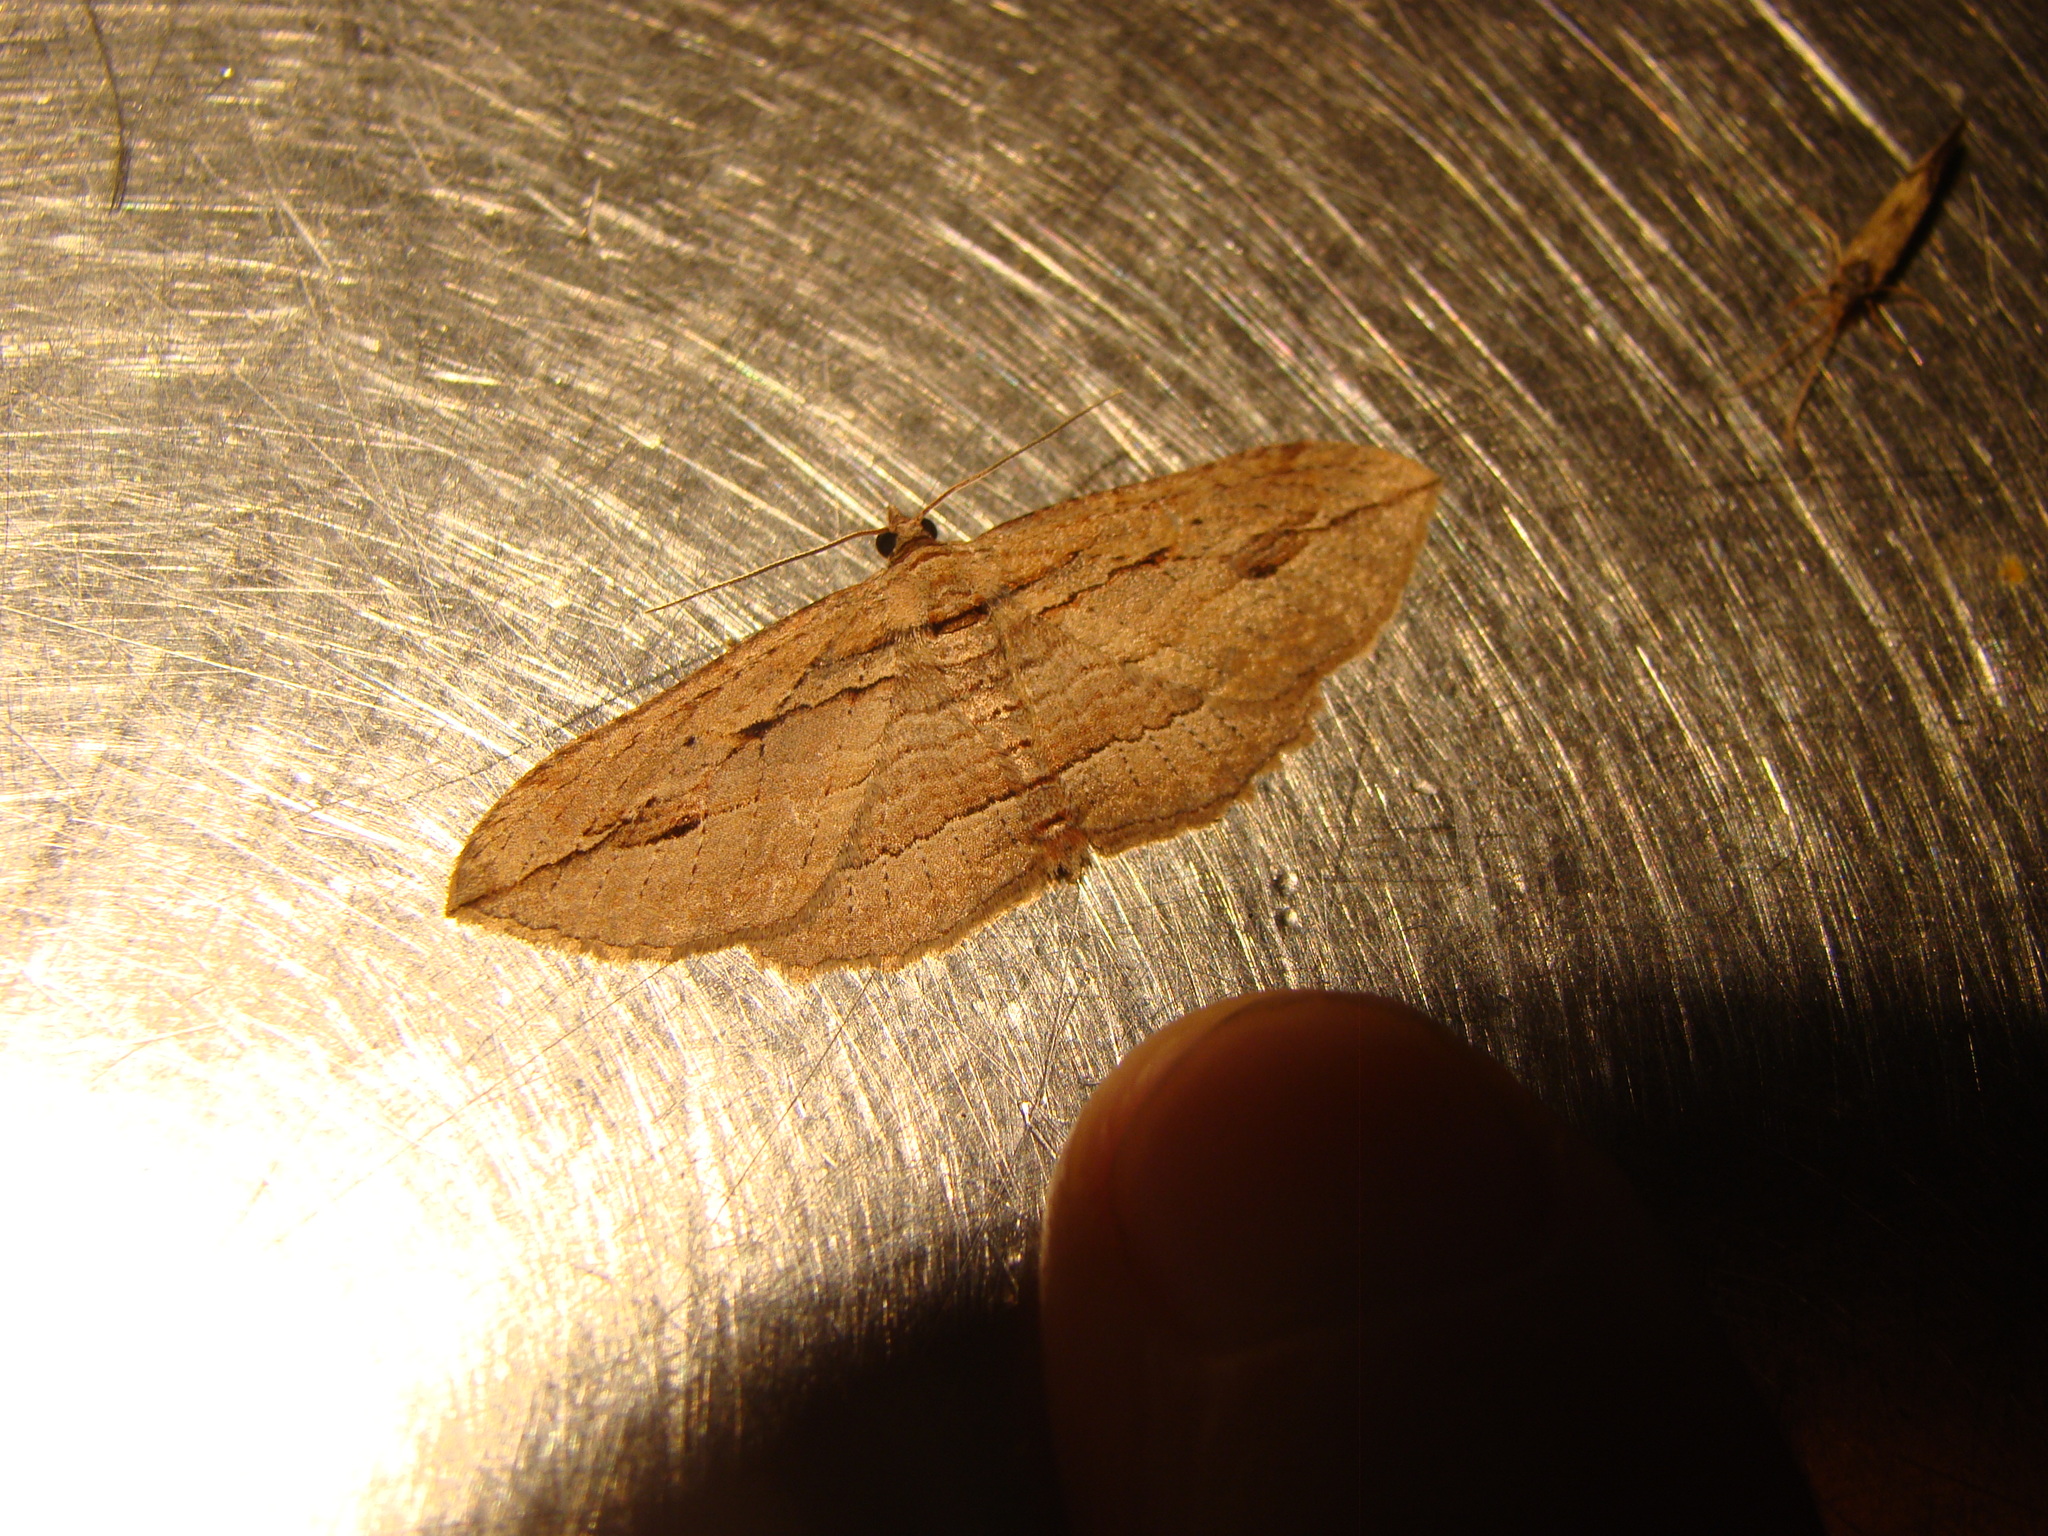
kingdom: Animalia
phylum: Arthropoda
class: Insecta
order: Lepidoptera
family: Geometridae
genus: Austrocidaria
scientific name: Austrocidaria gobiata
